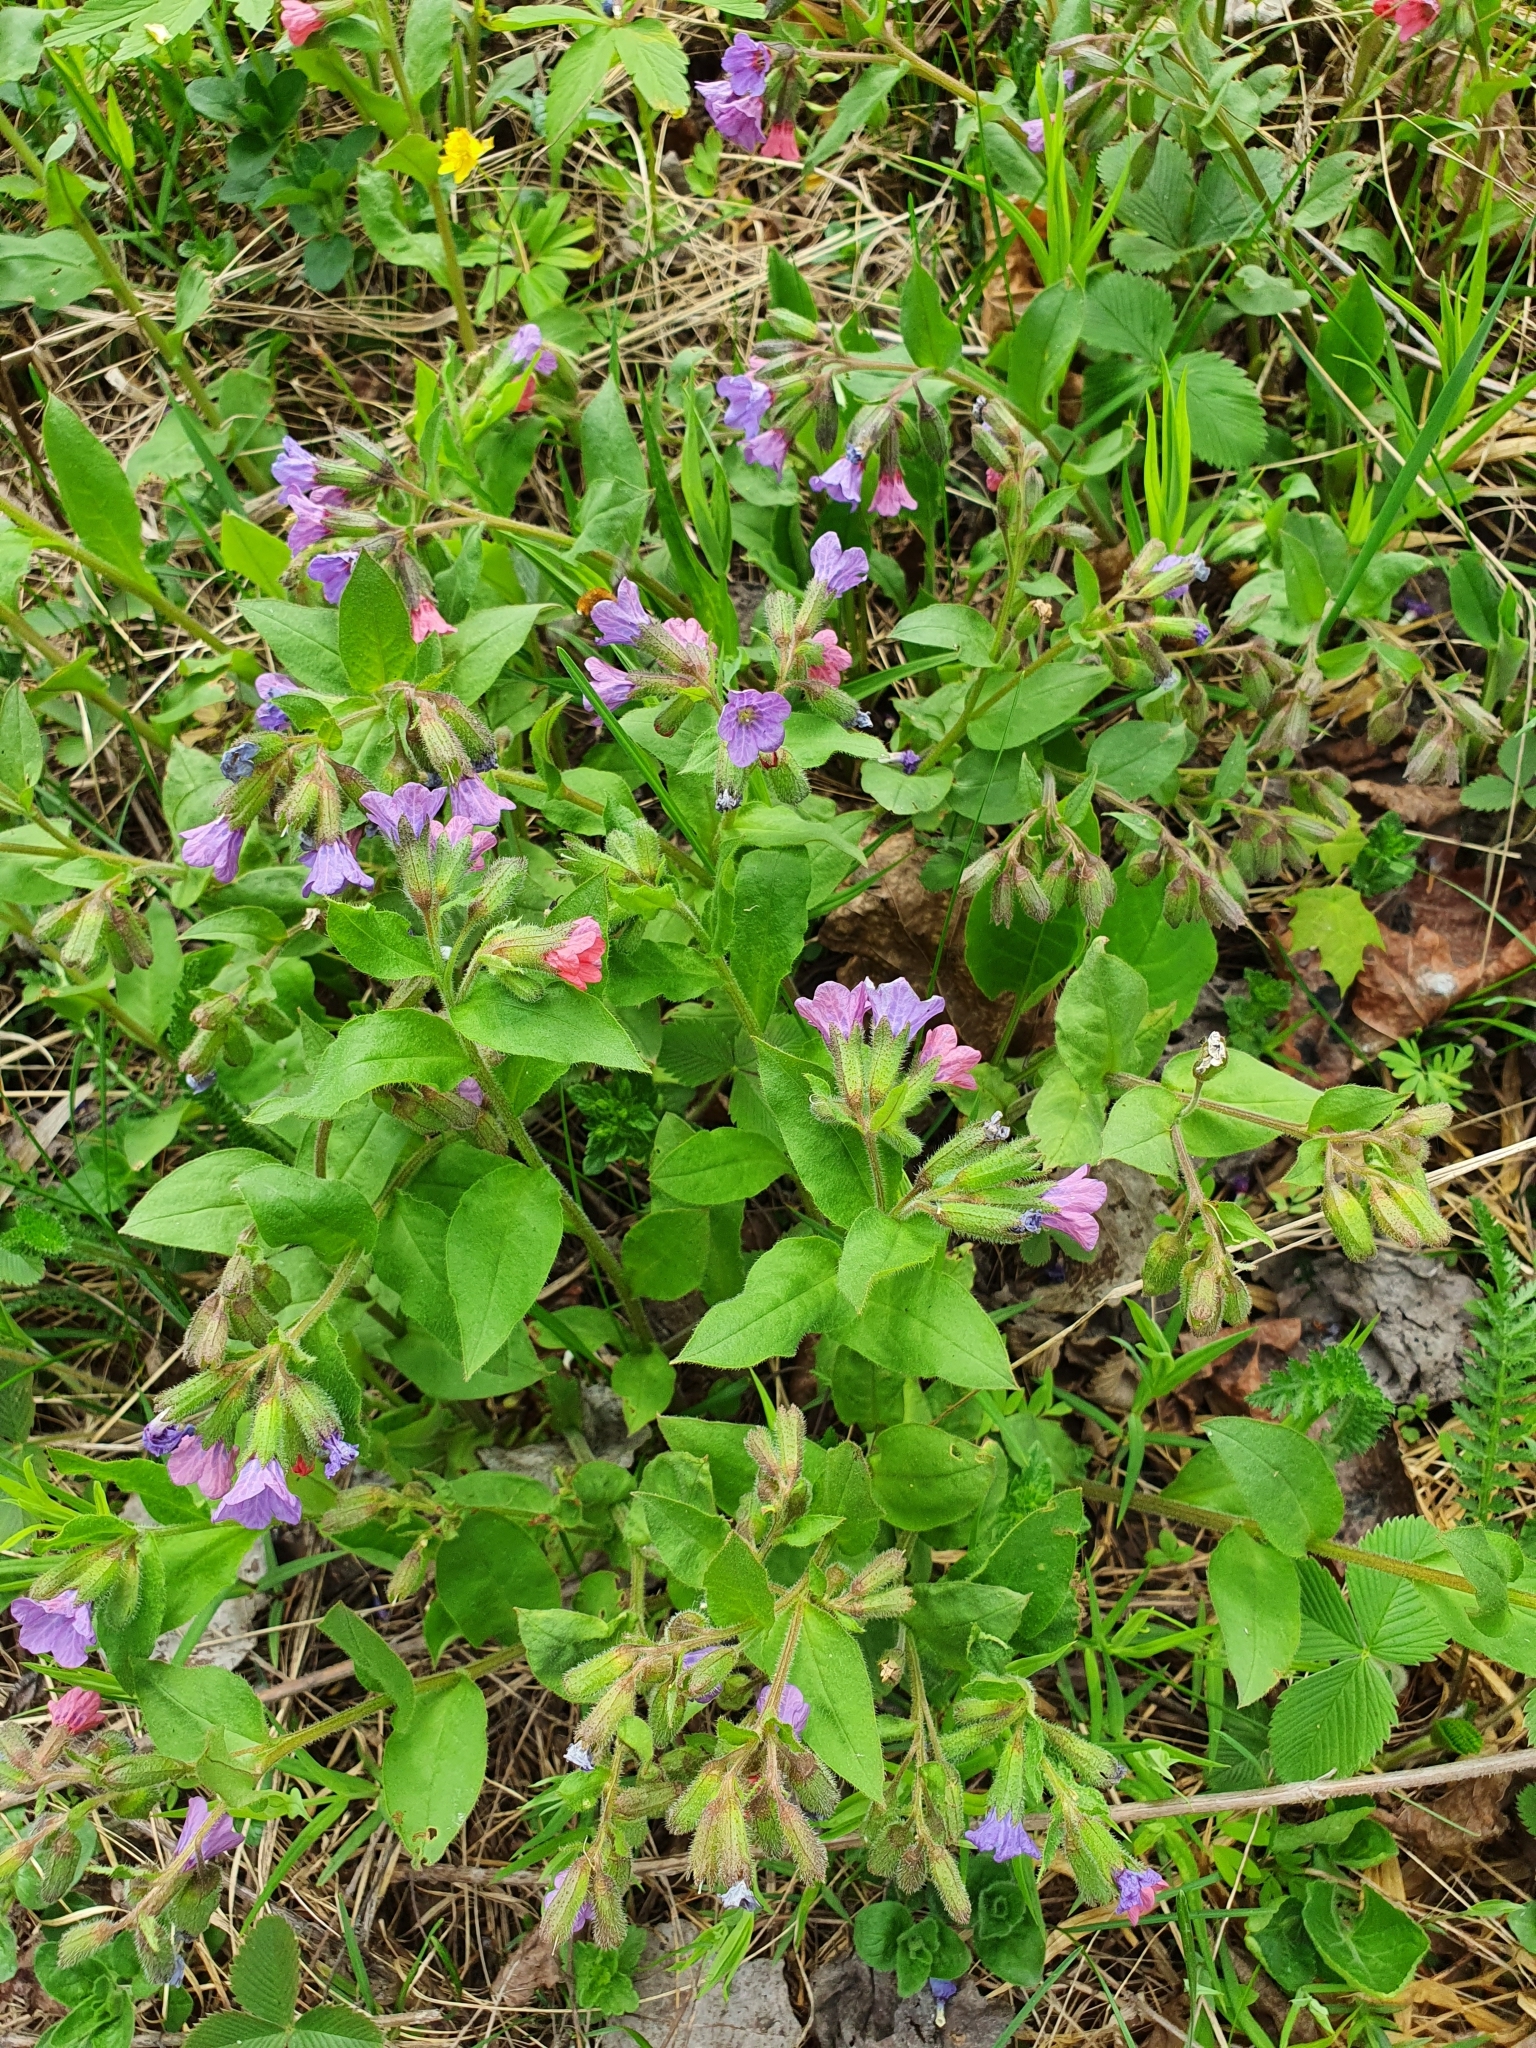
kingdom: Plantae
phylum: Tracheophyta
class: Magnoliopsida
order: Boraginales
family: Boraginaceae
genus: Pulmonaria
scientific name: Pulmonaria obscura
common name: Suffolk lungwort
